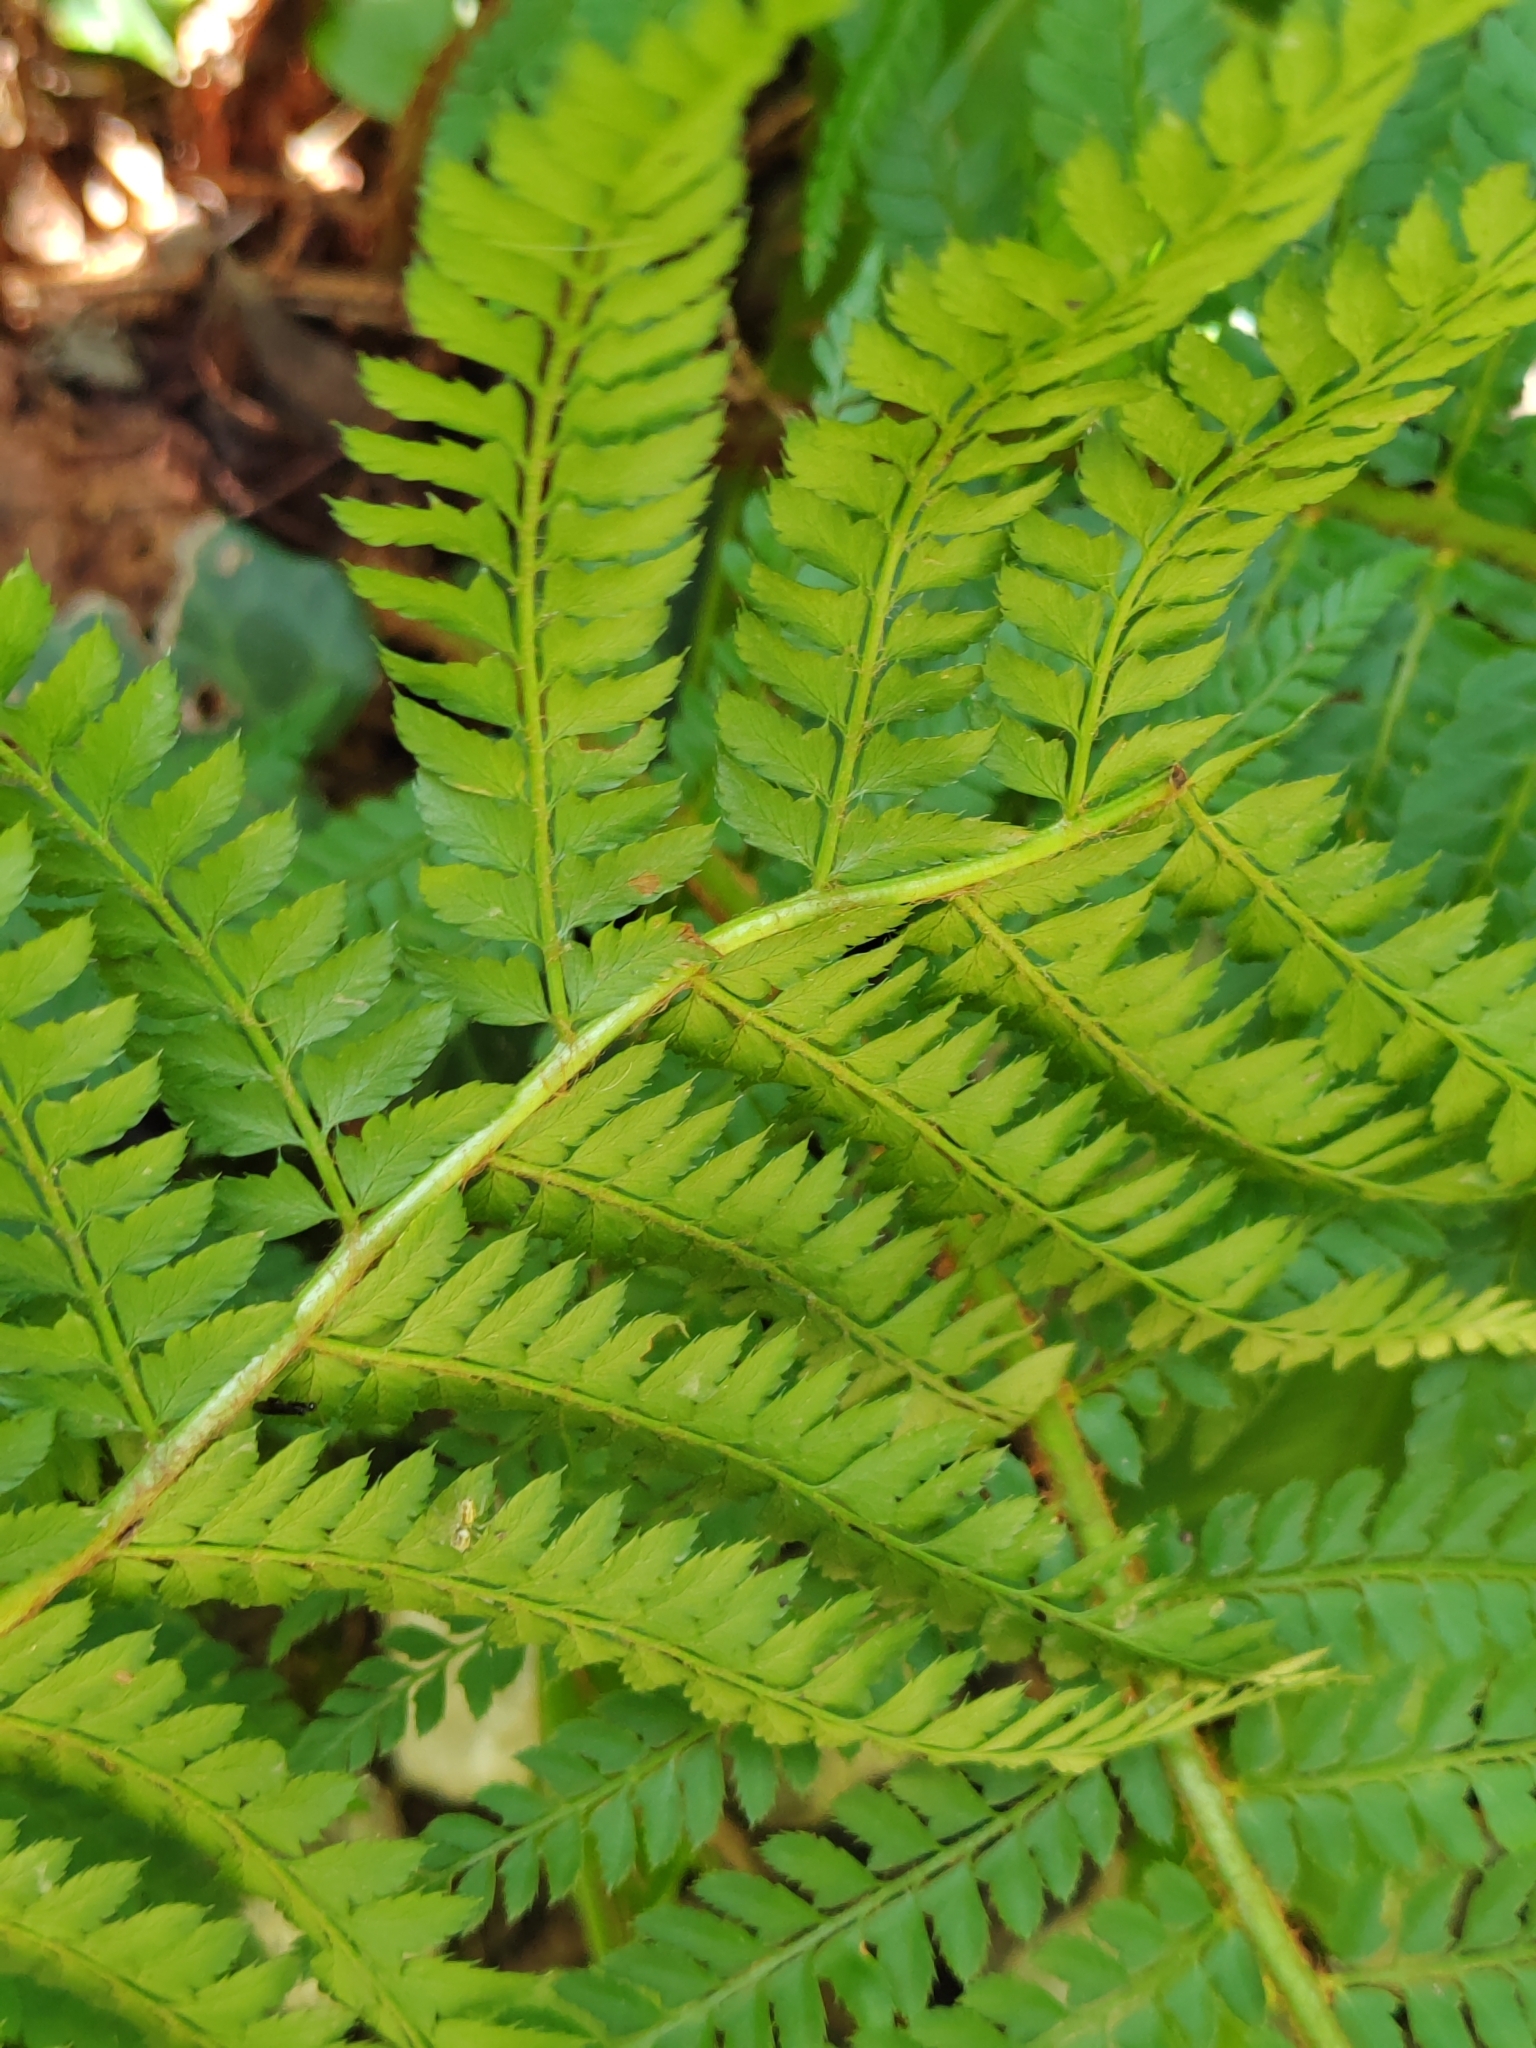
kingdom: Plantae
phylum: Tracheophyta
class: Polypodiopsida
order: Polypodiales
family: Dryopteridaceae
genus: Polystichum
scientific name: Polystichum setiferum
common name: Soft shield-fern
